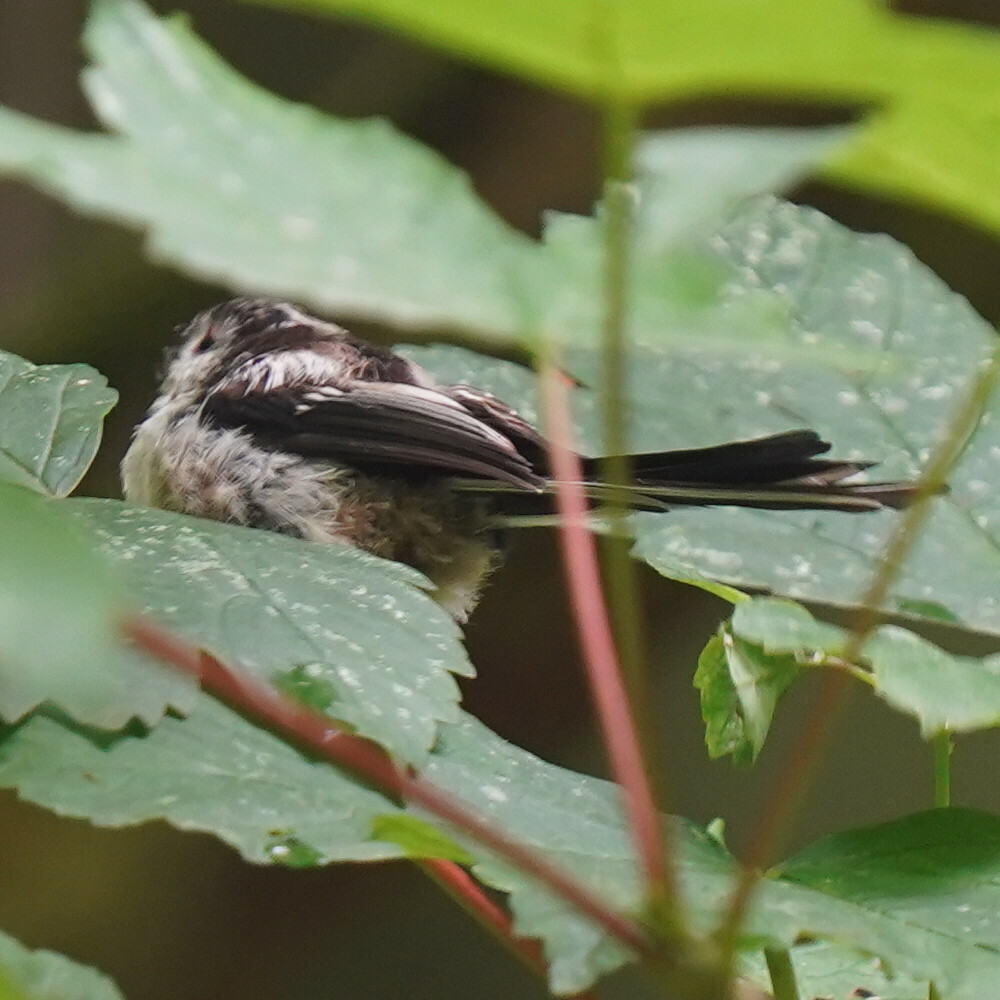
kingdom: Animalia
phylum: Chordata
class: Aves
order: Passeriformes
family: Aegithalidae
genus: Aegithalos
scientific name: Aegithalos caudatus
